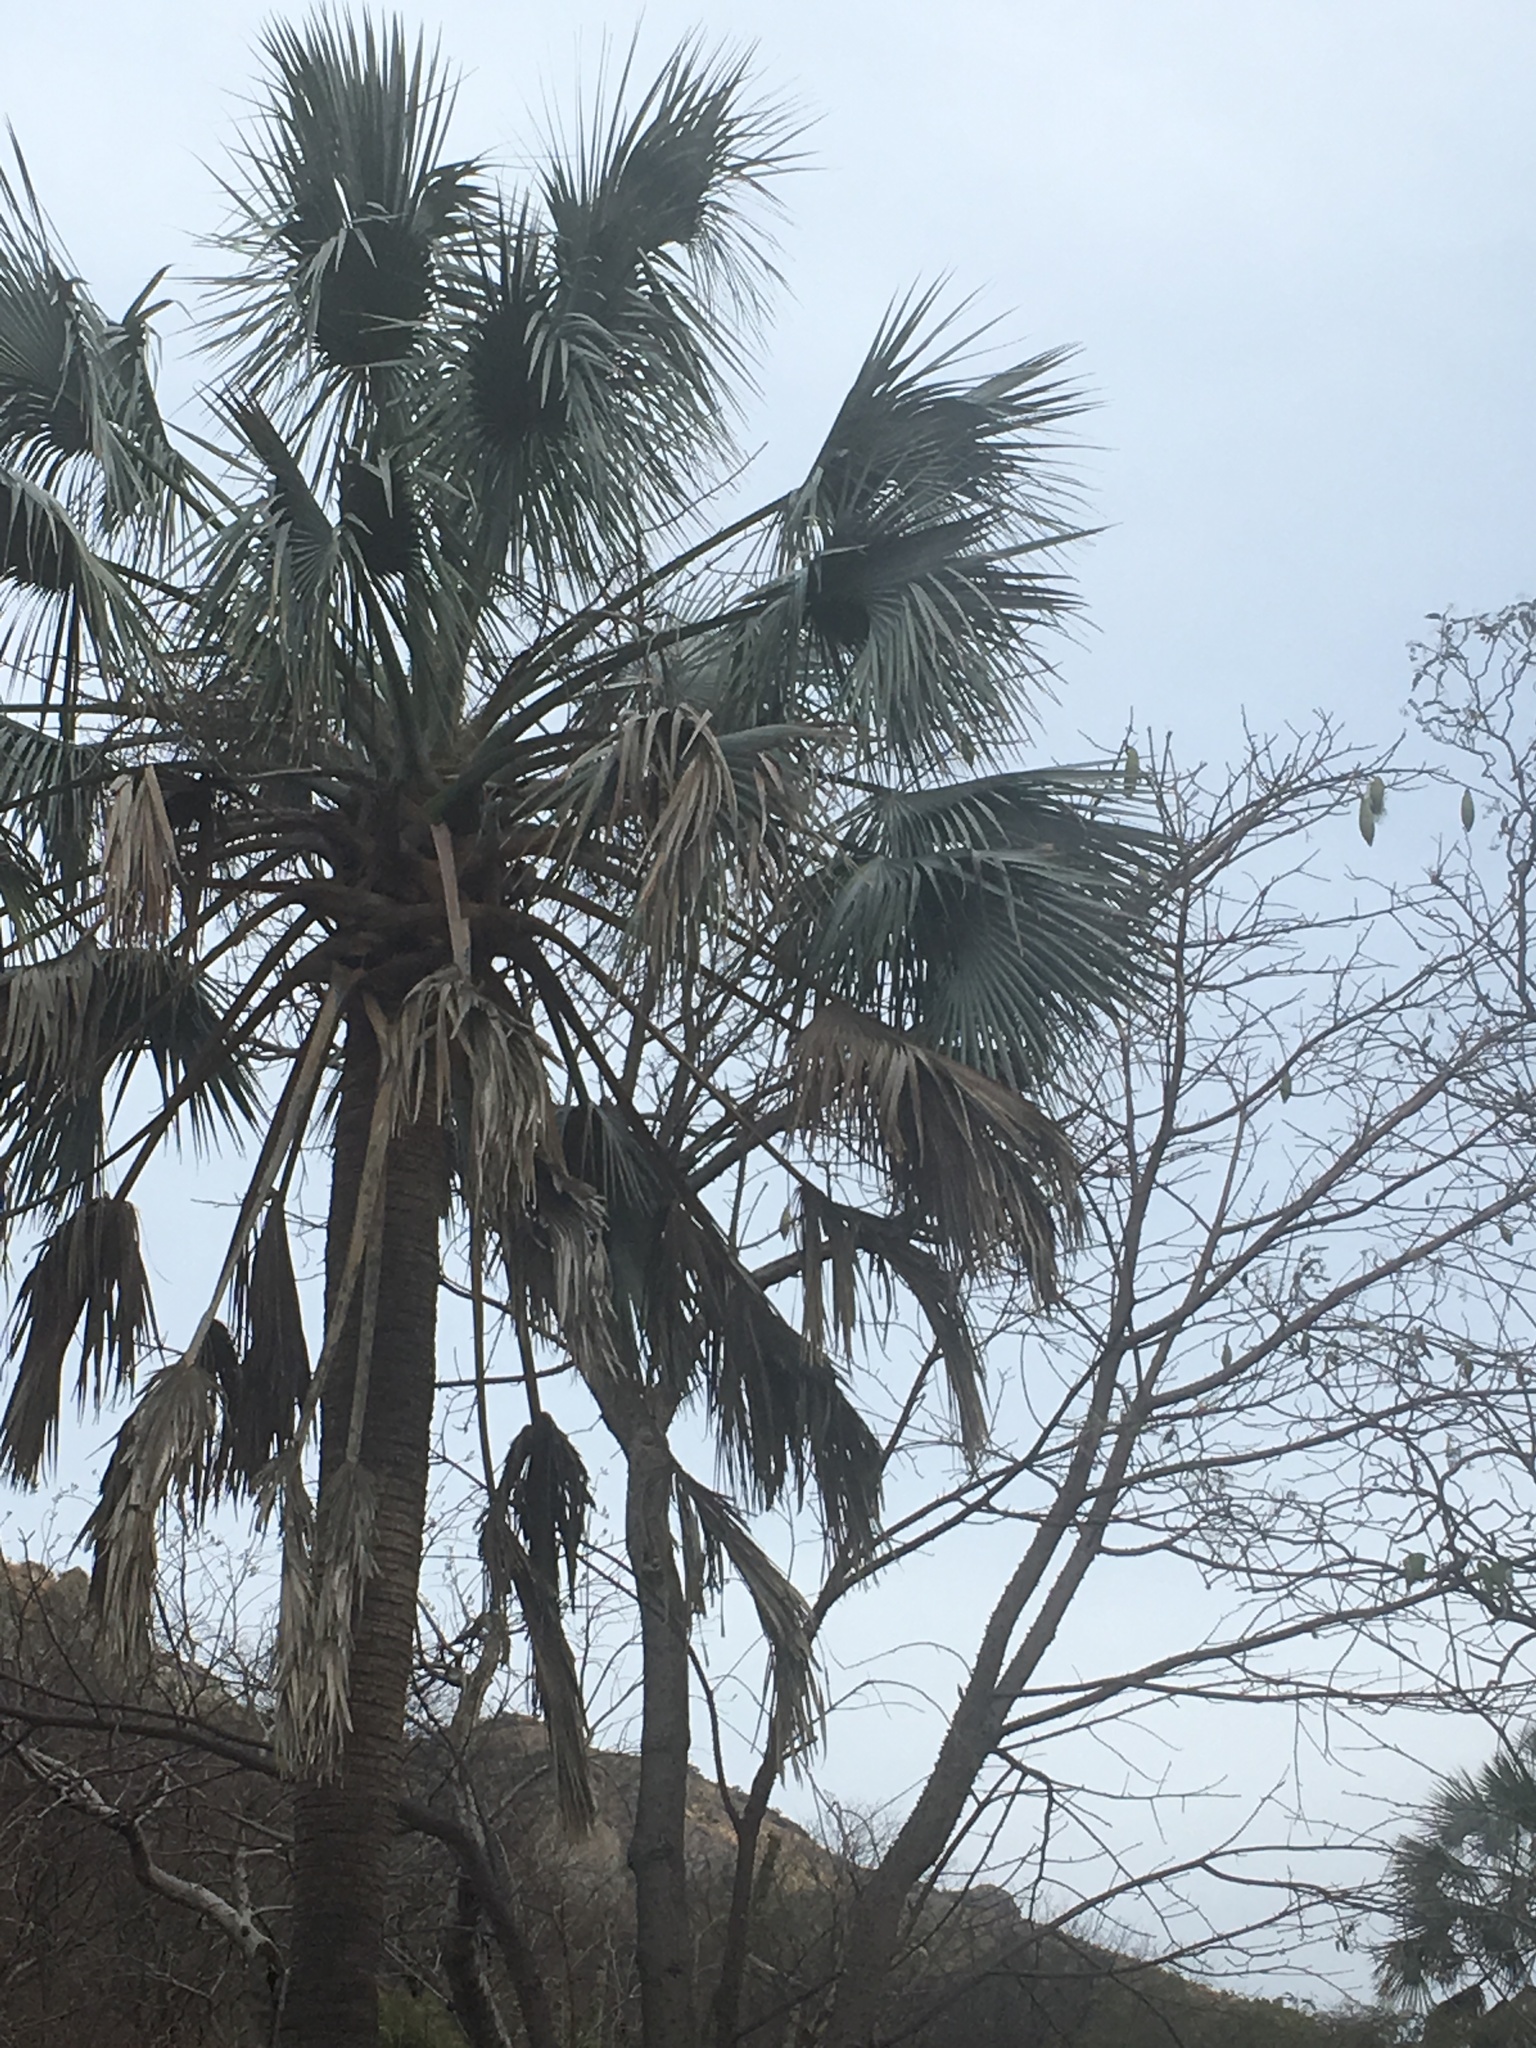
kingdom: Plantae
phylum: Tracheophyta
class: Liliopsida
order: Arecales
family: Arecaceae
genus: Sabal
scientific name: Sabal uresana
